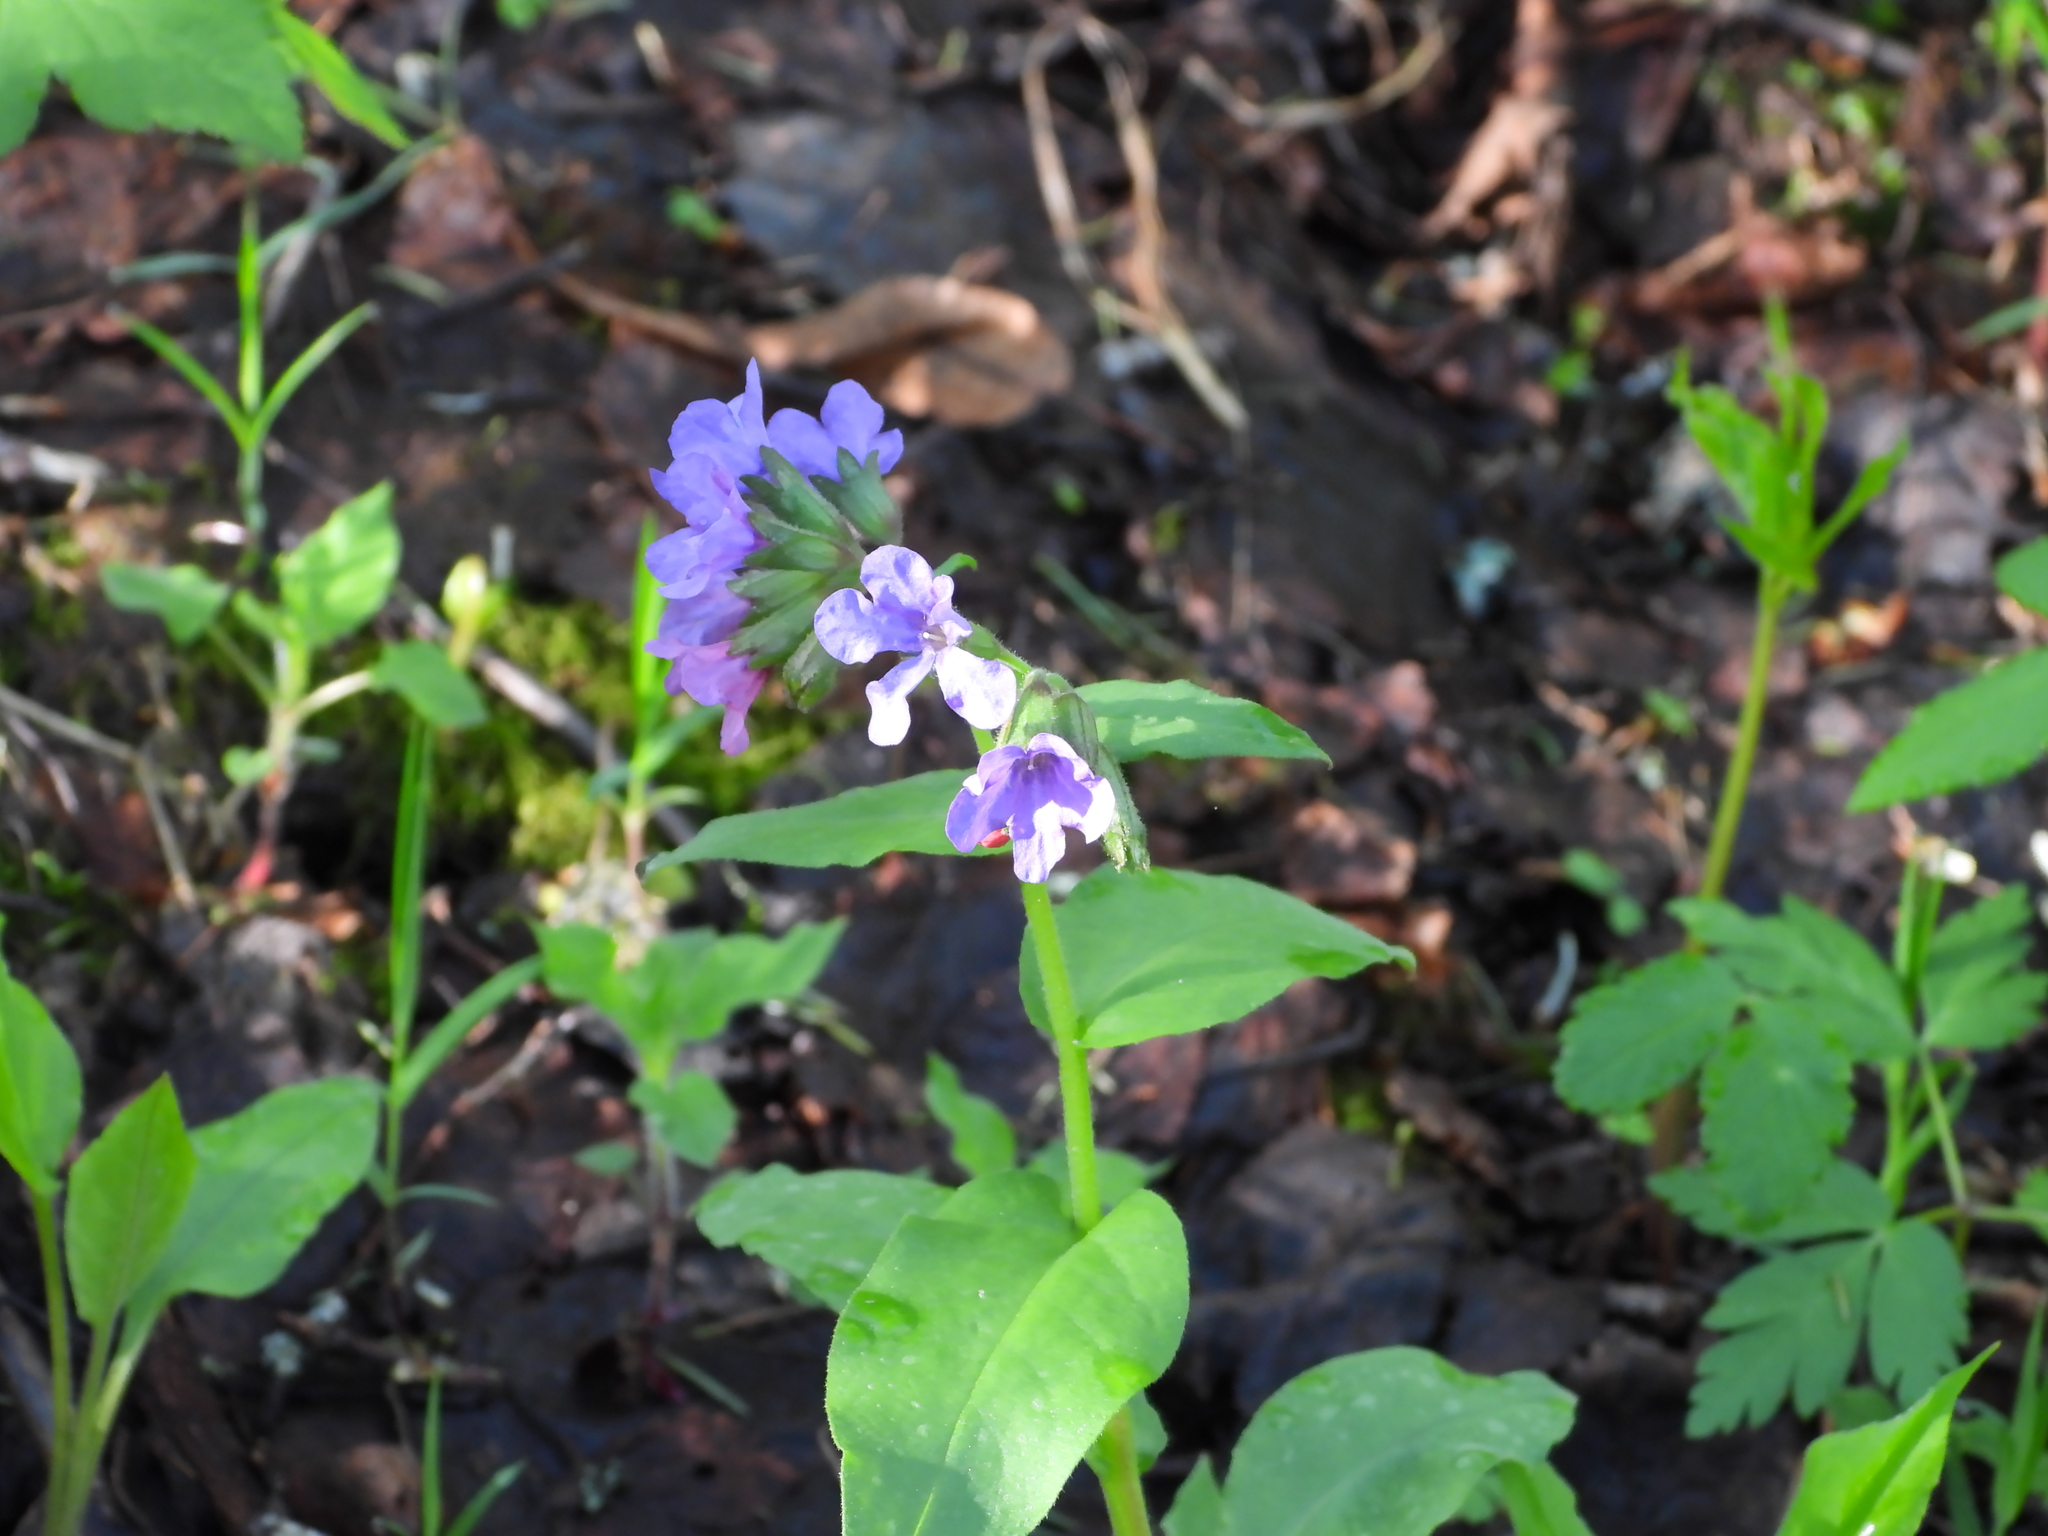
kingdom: Plantae
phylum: Tracheophyta
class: Magnoliopsida
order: Boraginales
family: Boraginaceae
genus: Pulmonaria
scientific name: Pulmonaria obscura
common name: Suffolk lungwort
